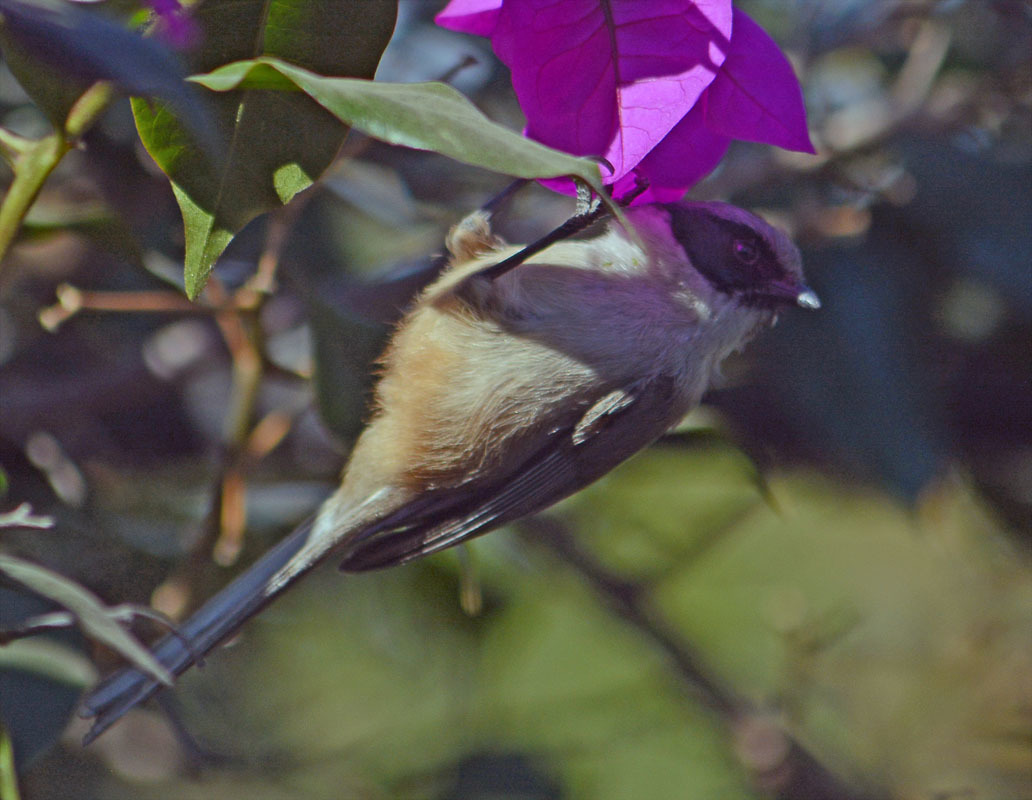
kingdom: Animalia
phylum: Chordata
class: Aves
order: Passeriformes
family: Aegithalidae
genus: Psaltriparus
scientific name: Psaltriparus minimus
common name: American bushtit
